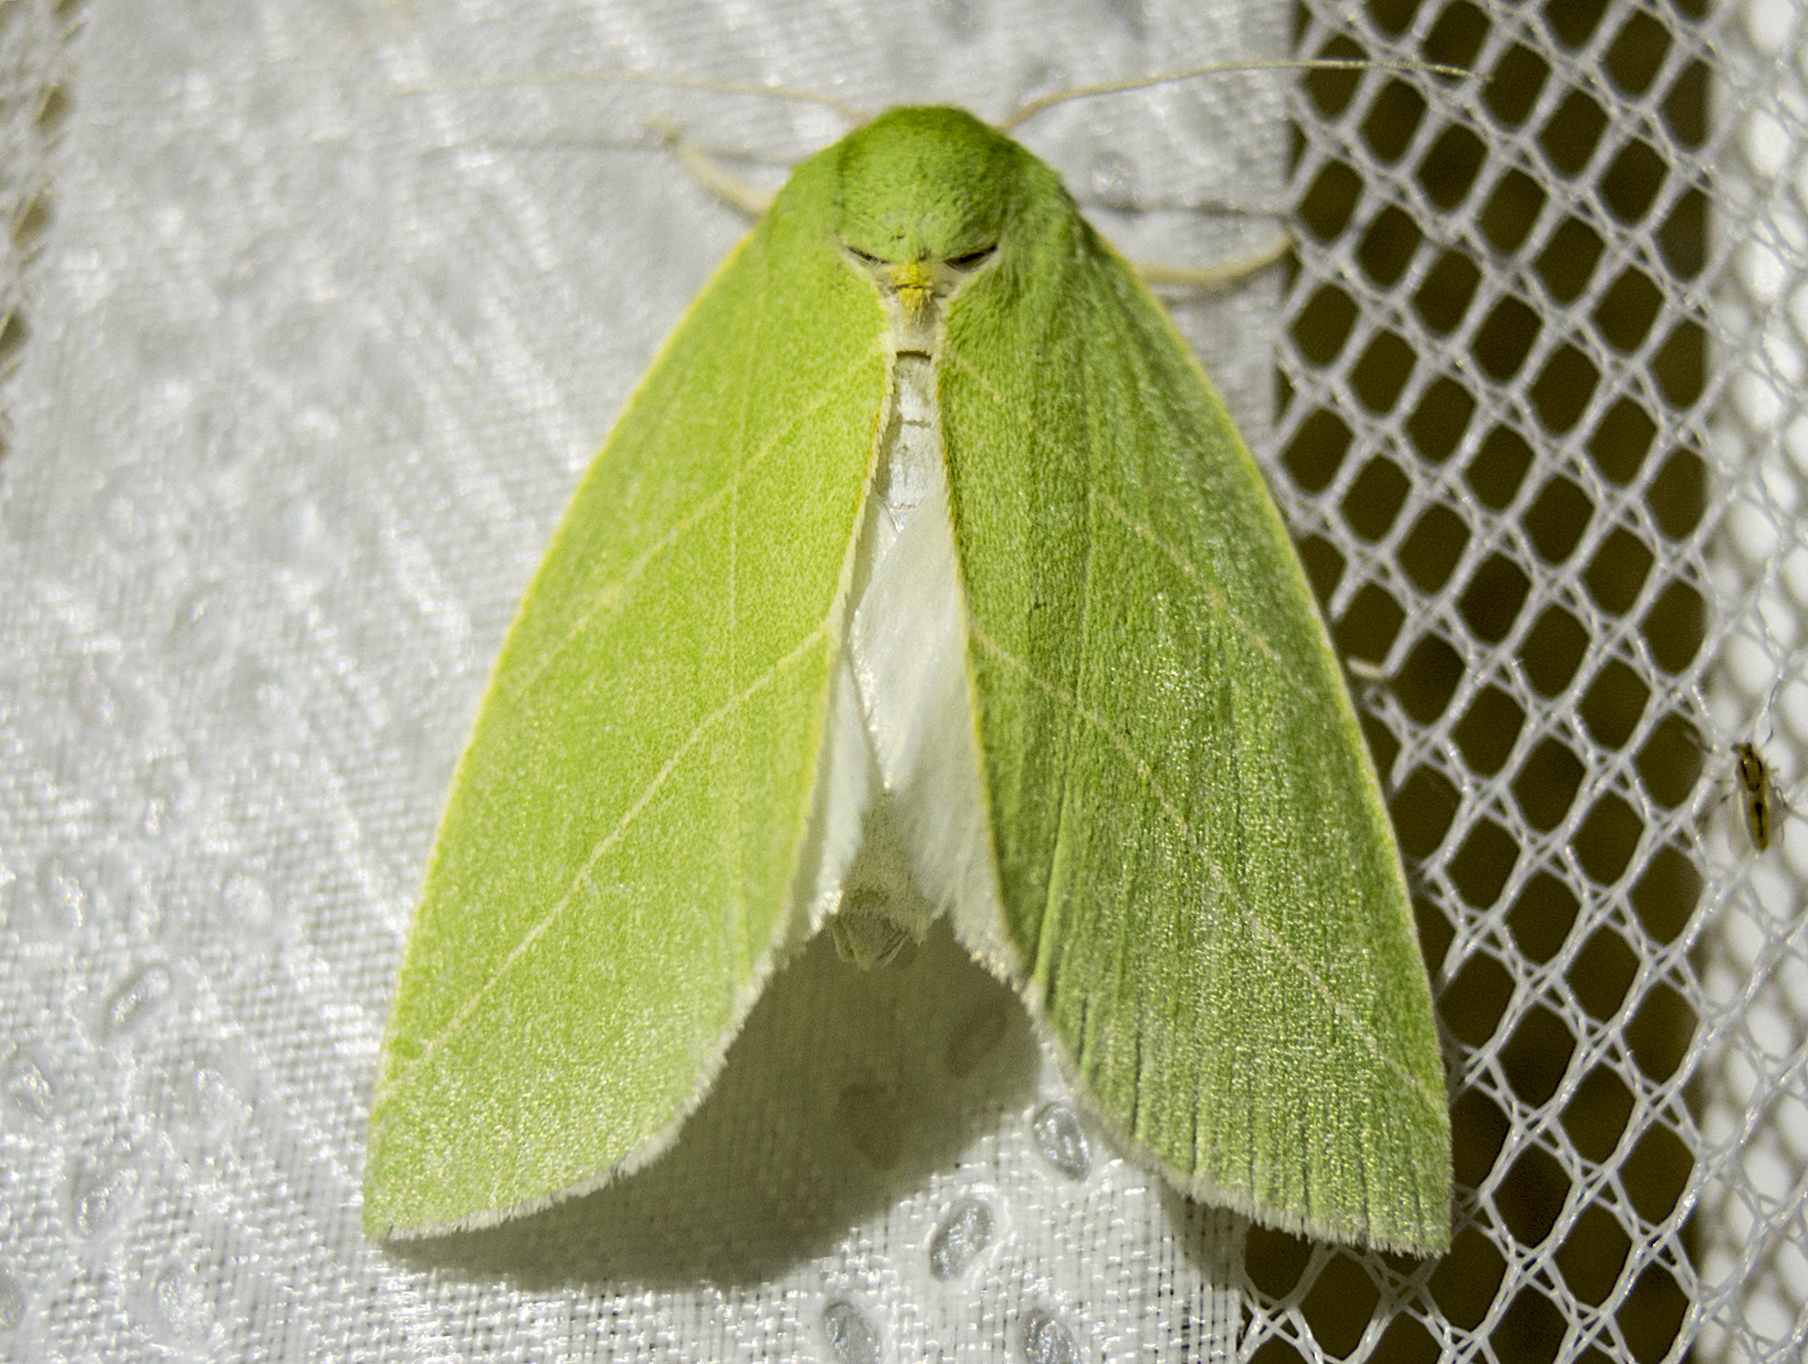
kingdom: Animalia
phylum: Arthropoda
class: Insecta
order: Lepidoptera
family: Nolidae
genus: Bena
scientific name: Bena bicolorana
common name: Scarce silver-lines
